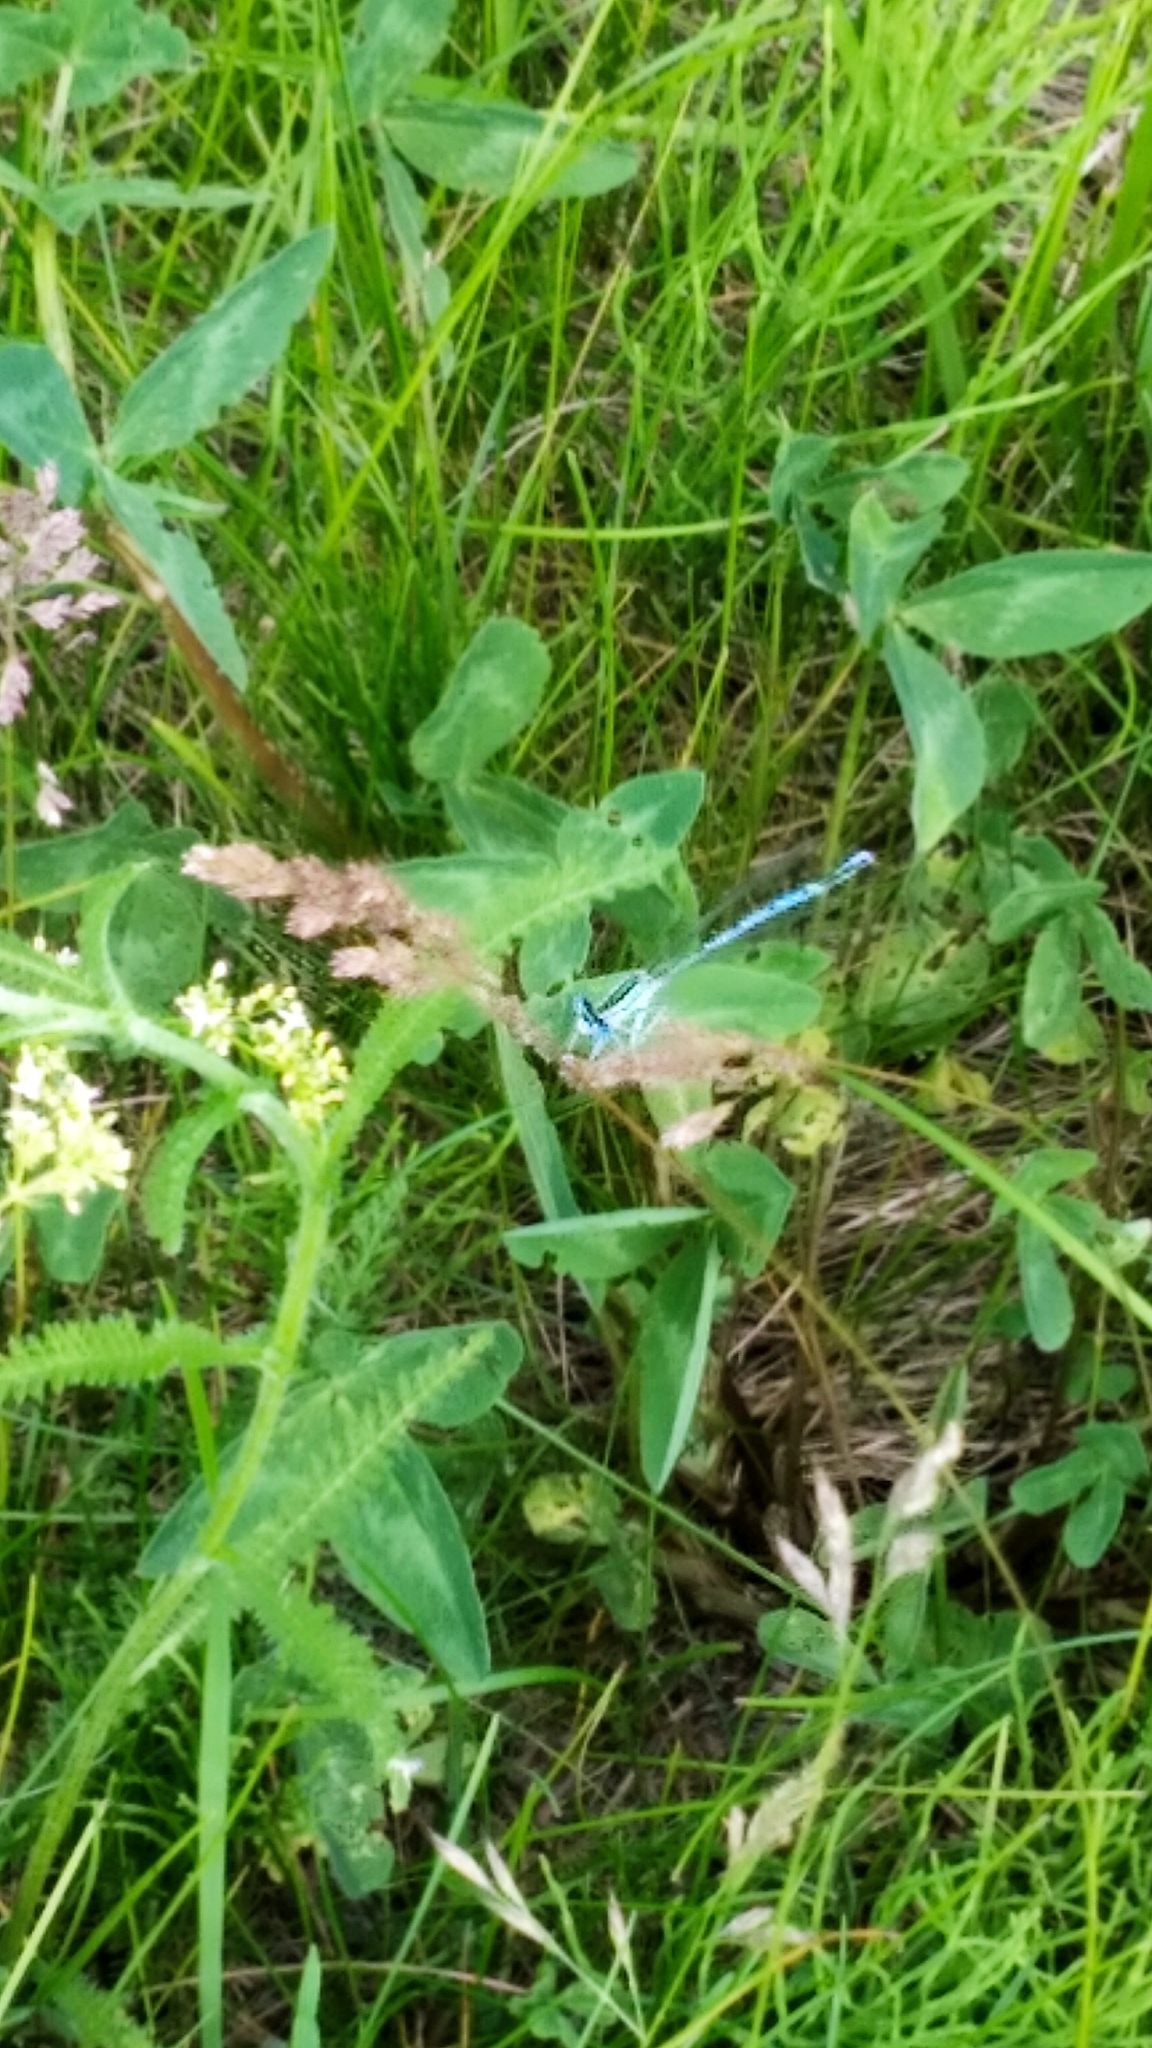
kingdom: Animalia
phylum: Arthropoda
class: Insecta
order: Odonata
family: Coenagrionidae
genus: Coenagrion
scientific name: Coenagrion puella
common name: Azure damselfly
